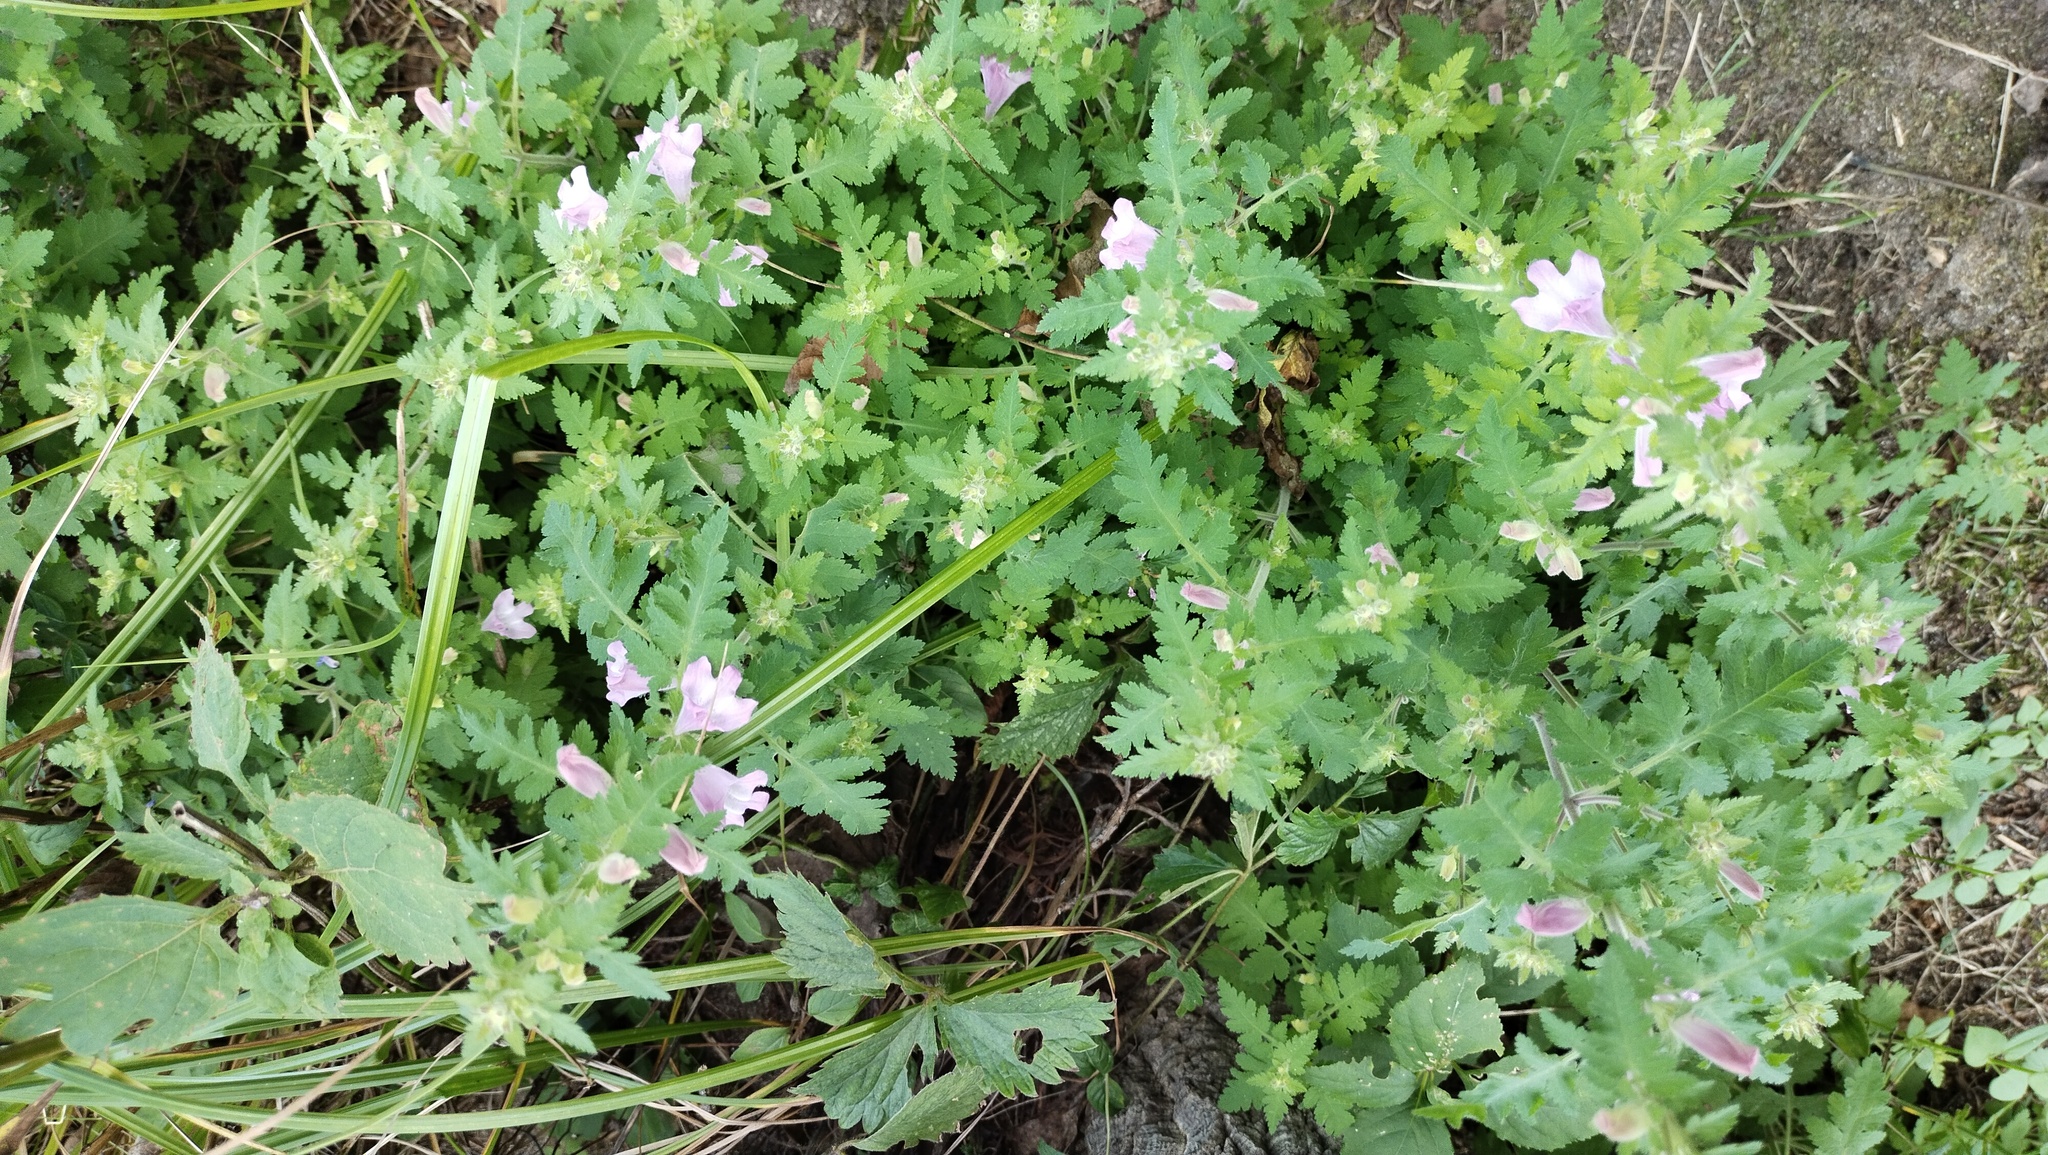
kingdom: Plantae
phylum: Tracheophyta
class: Magnoliopsida
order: Lamiales
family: Orobanchaceae
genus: Phtheirospermum
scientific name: Phtheirospermum japonicum
